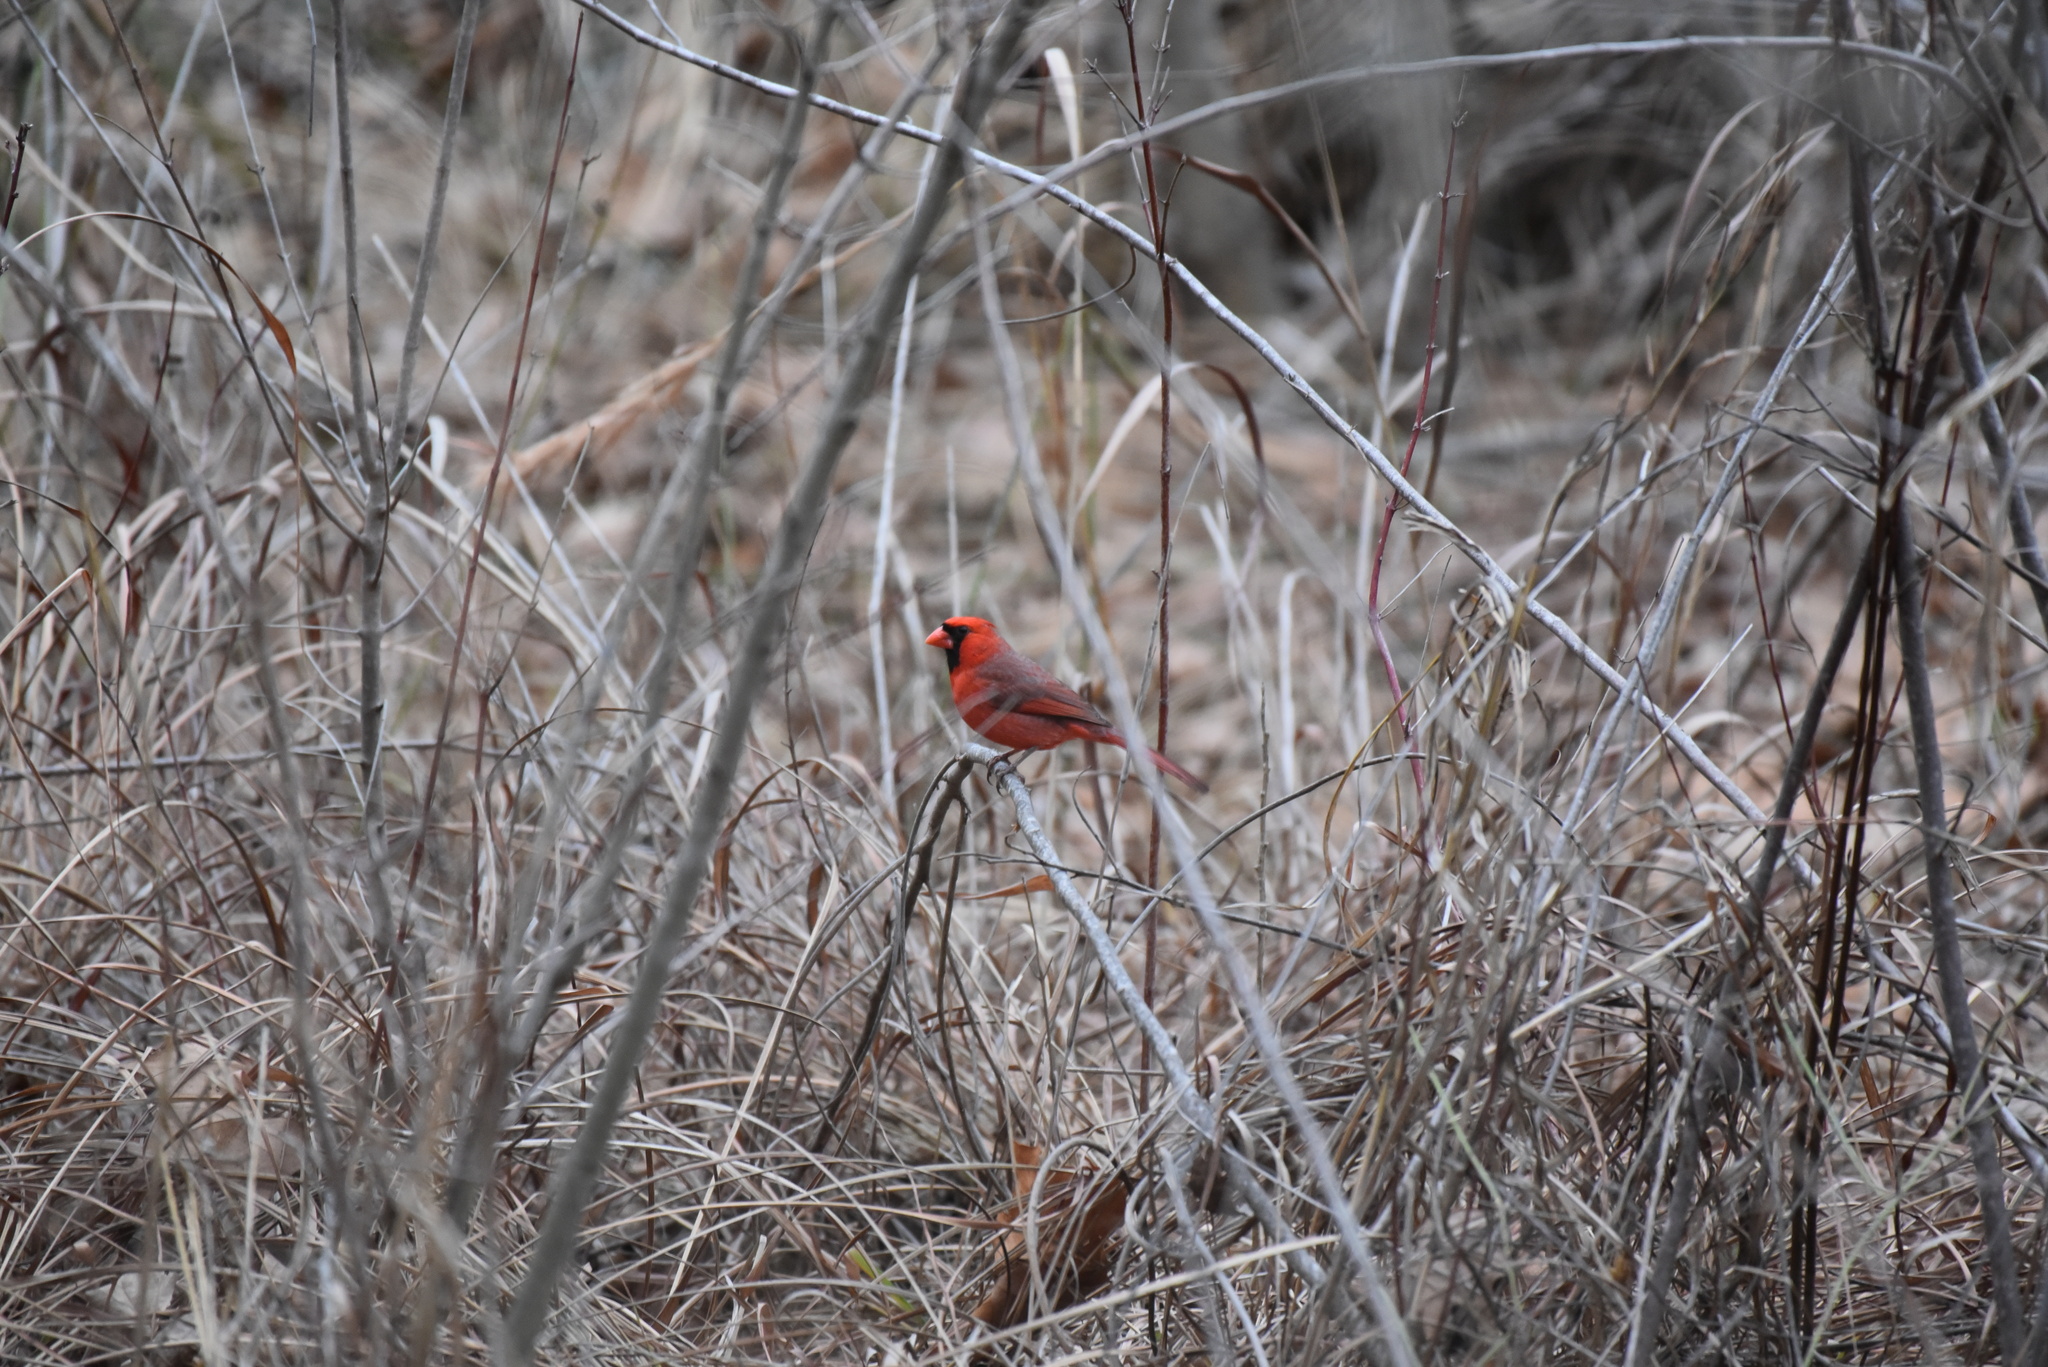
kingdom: Animalia
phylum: Chordata
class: Aves
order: Passeriformes
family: Cardinalidae
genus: Cardinalis
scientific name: Cardinalis cardinalis
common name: Northern cardinal
